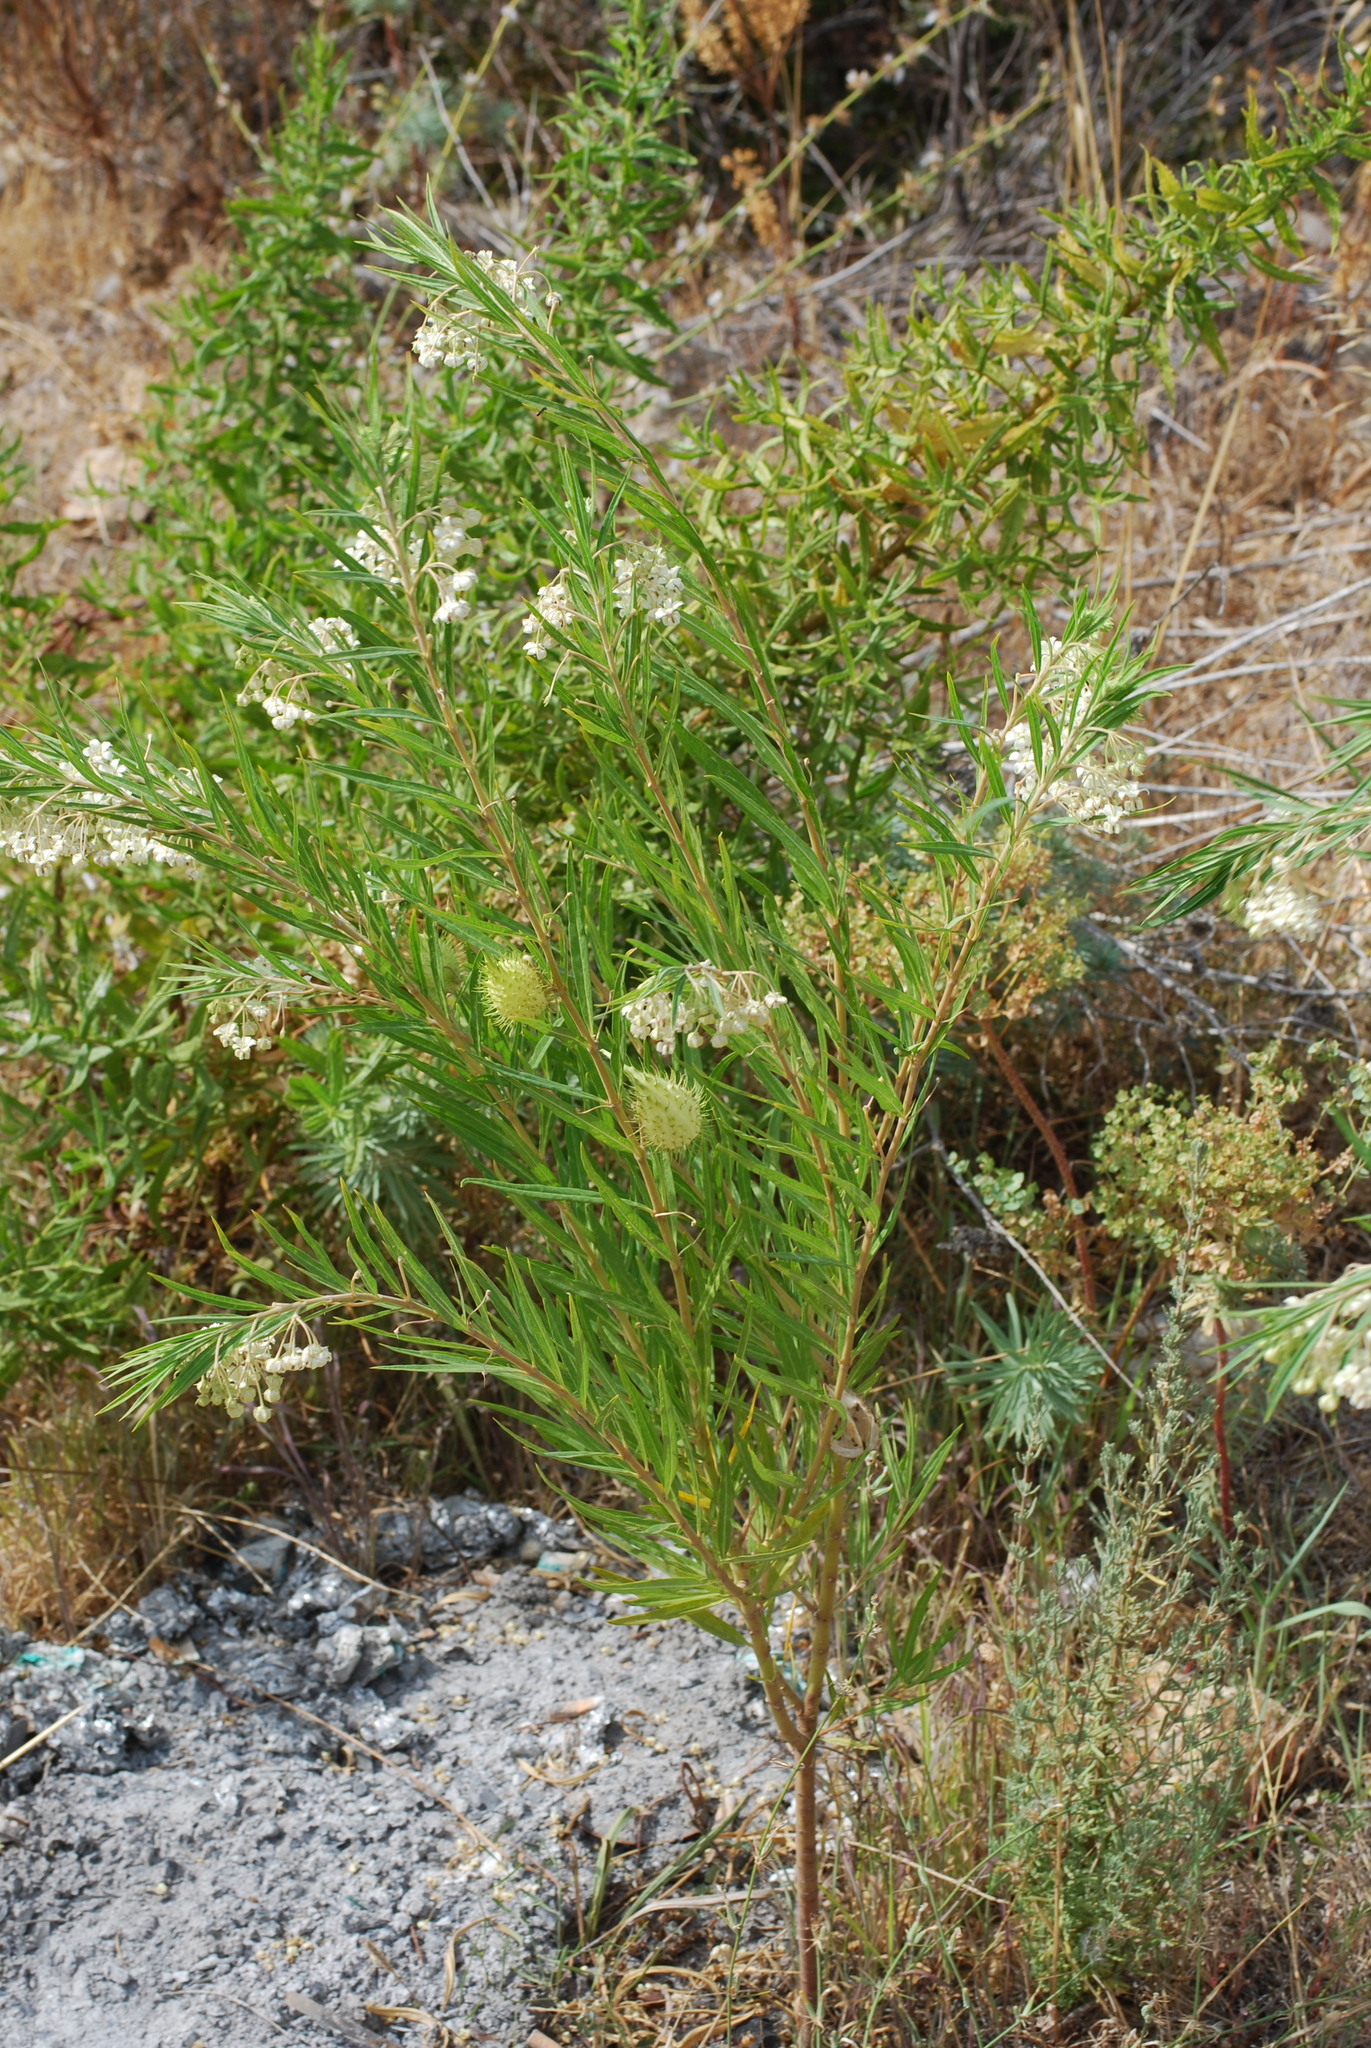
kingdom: Plantae
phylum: Tracheophyta
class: Magnoliopsida
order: Gentianales
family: Apocynaceae
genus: Gomphocarpus
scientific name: Gomphocarpus fruticosus
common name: Milkweed
